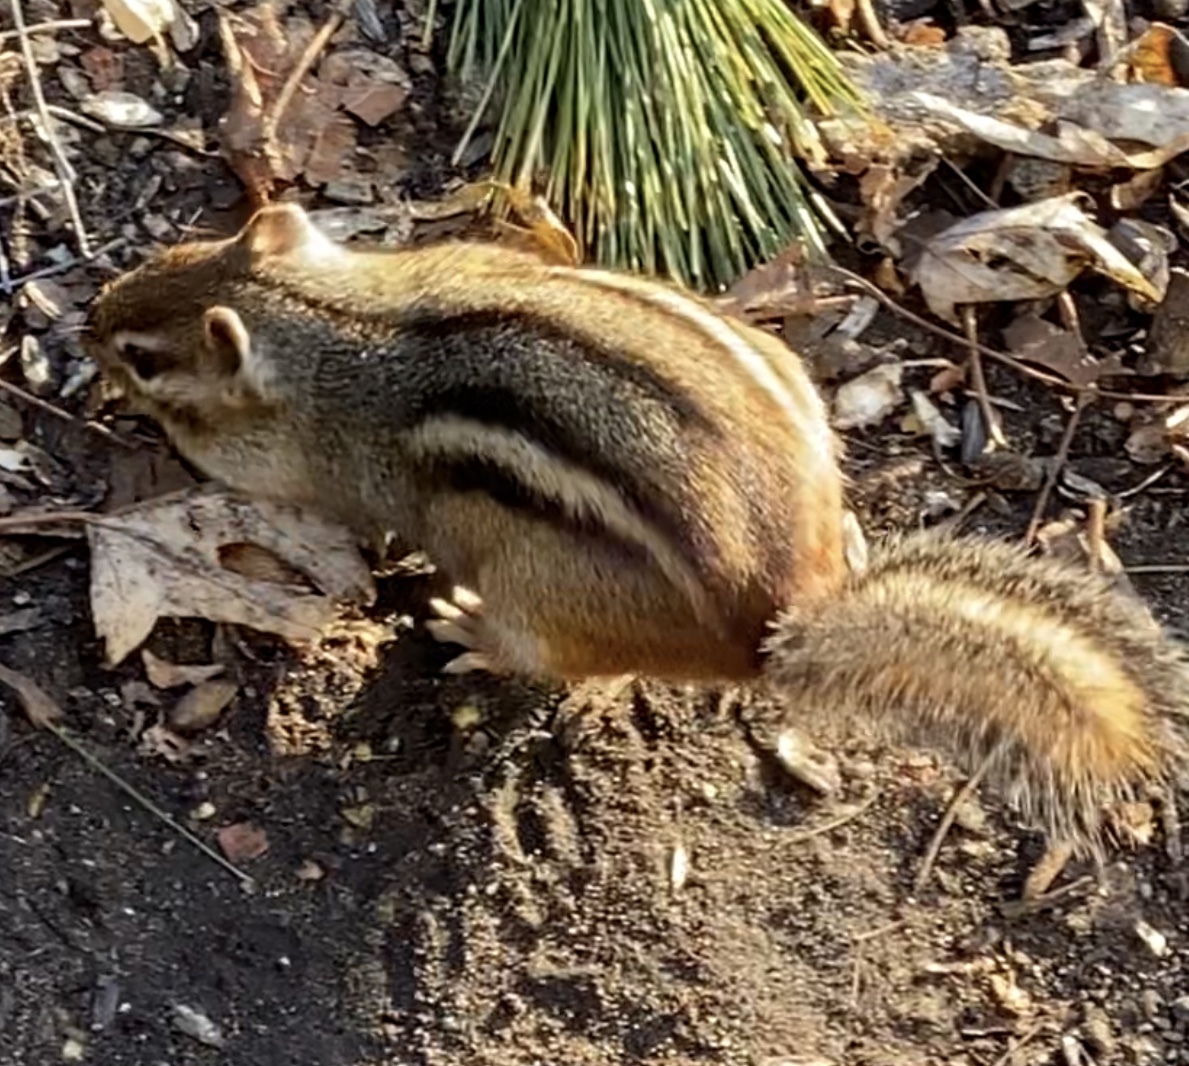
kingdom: Animalia
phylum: Chordata
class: Mammalia
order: Rodentia
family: Sciuridae
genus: Tamias
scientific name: Tamias striatus
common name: Eastern chipmunk
